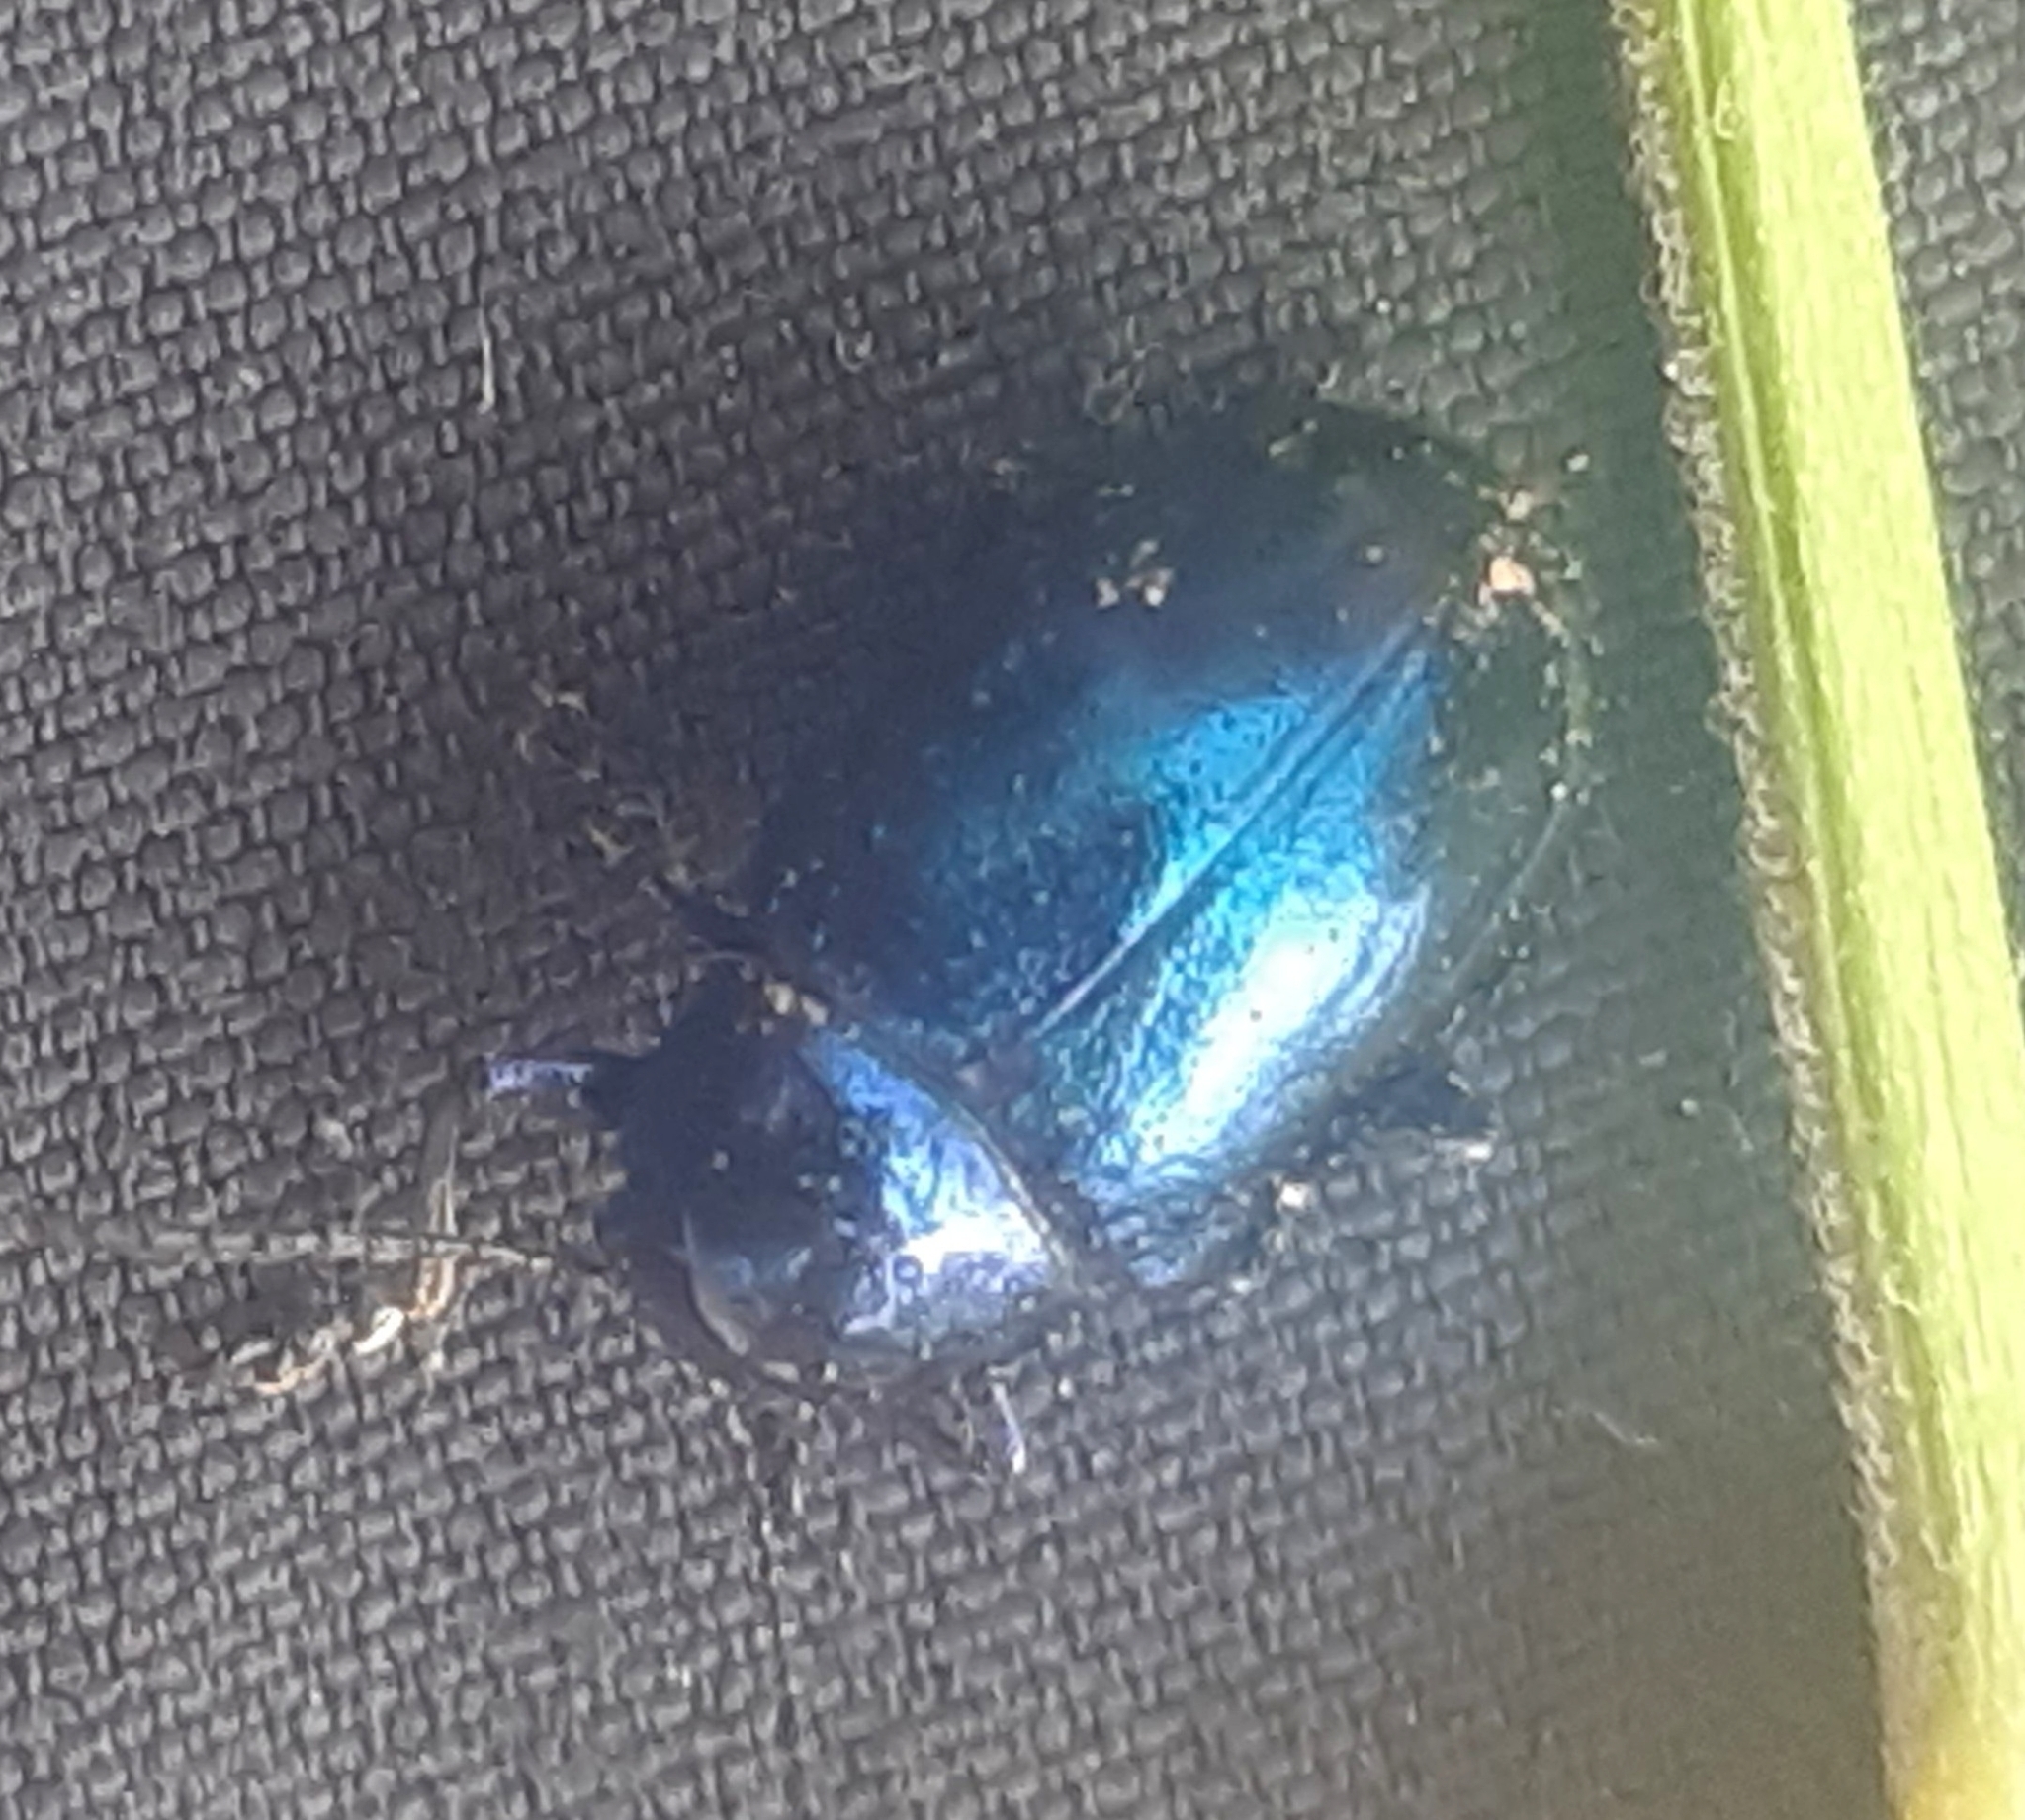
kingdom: Animalia
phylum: Arthropoda
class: Insecta
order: Coleoptera
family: Chrysomelidae
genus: Chrysochus
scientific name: Chrysochus asclepiadeus
